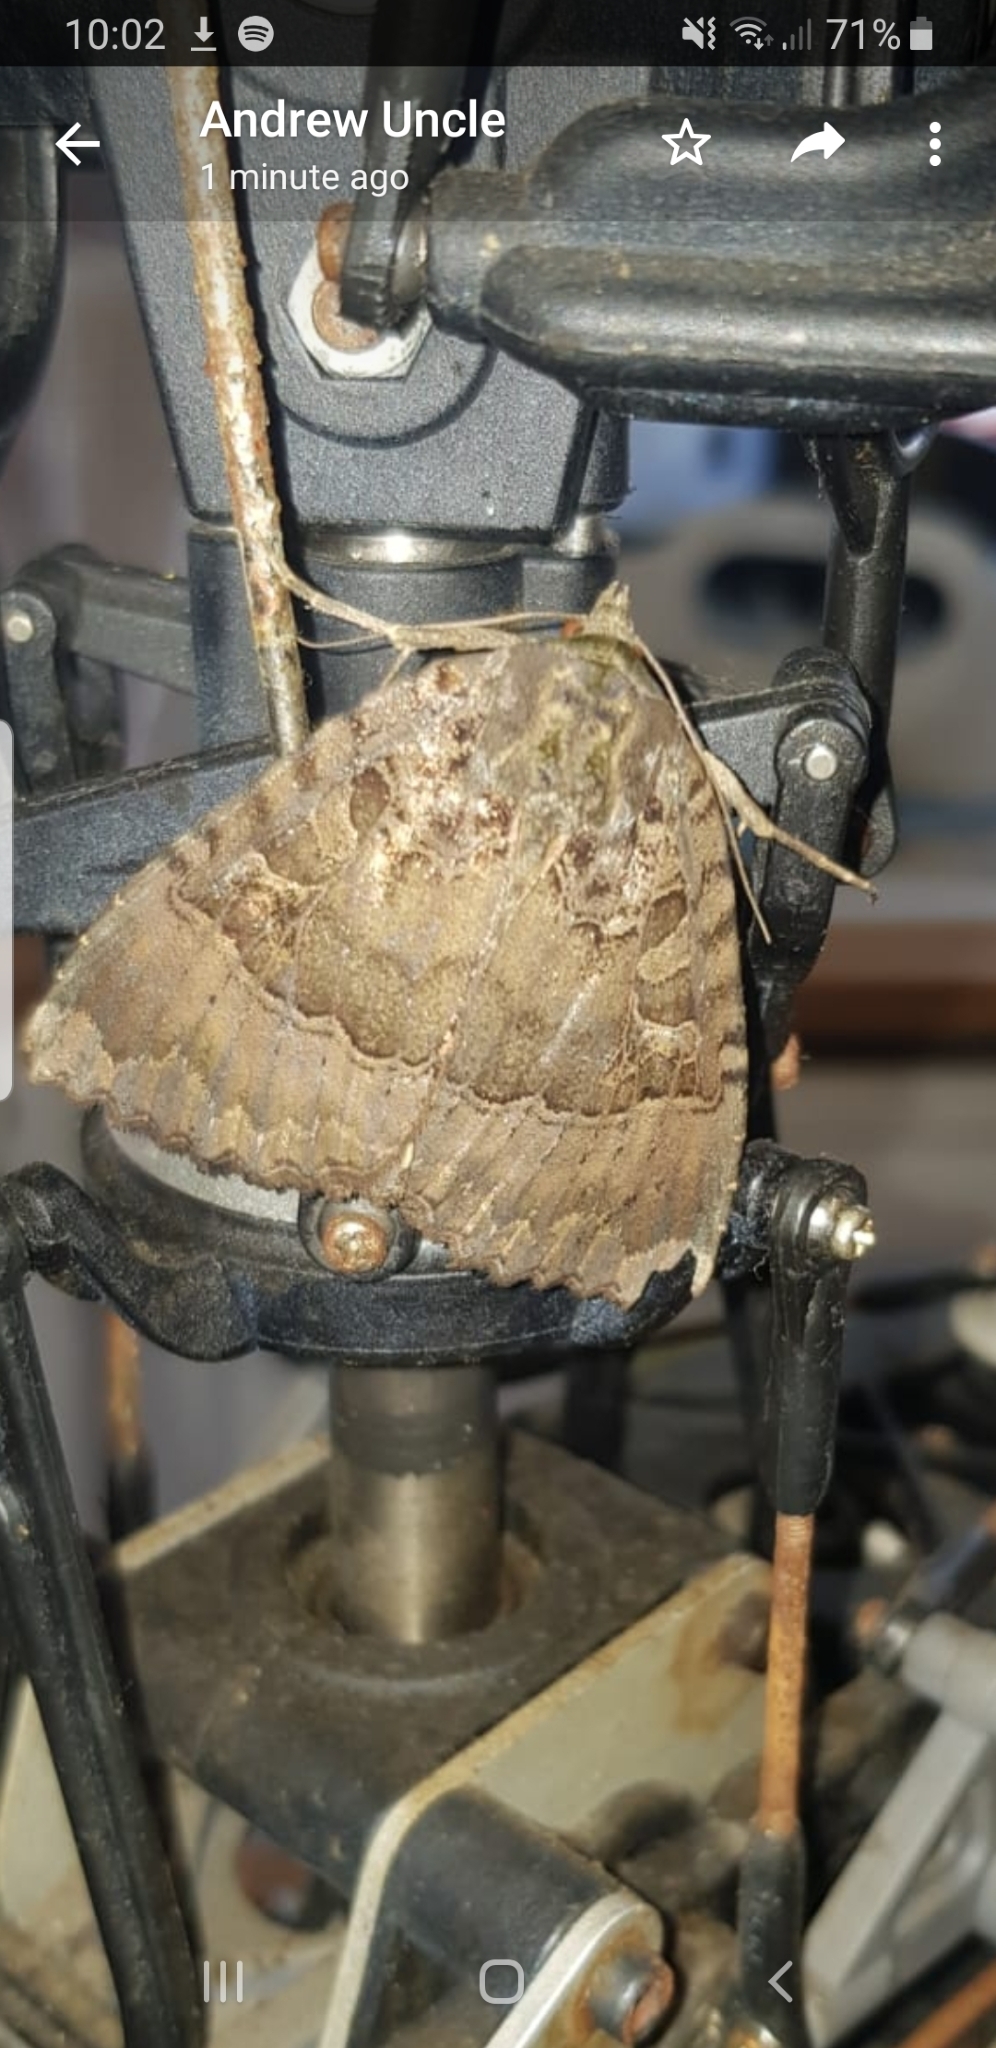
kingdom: Animalia
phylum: Arthropoda
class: Insecta
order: Lepidoptera
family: Noctuidae
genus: Mormo
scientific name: Mormo maura
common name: Old lady
